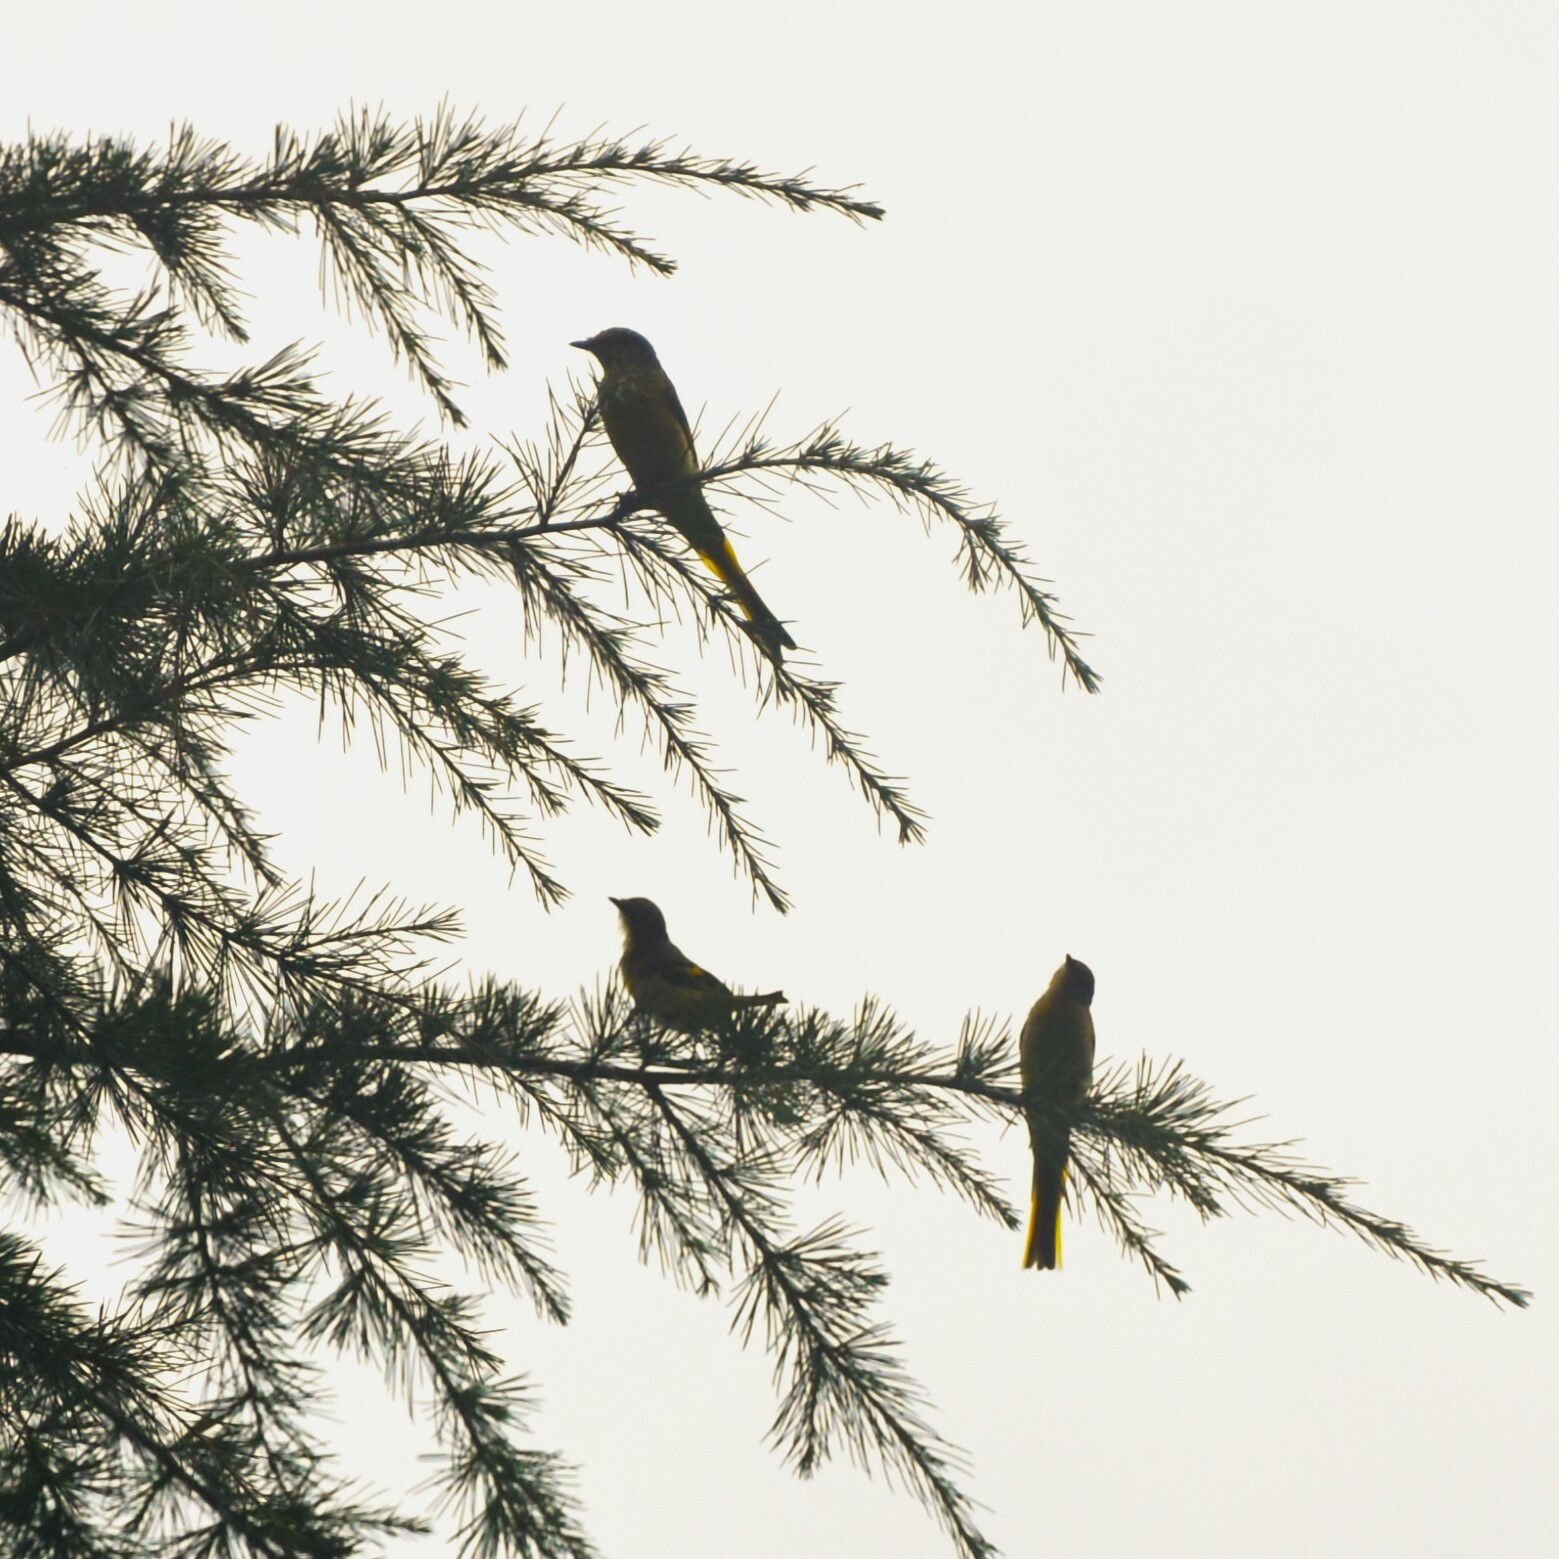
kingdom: Animalia
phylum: Chordata
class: Aves
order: Passeriformes
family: Campephagidae
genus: Pericrocotus
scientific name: Pericrocotus ethologus
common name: Long-tailed minivet
